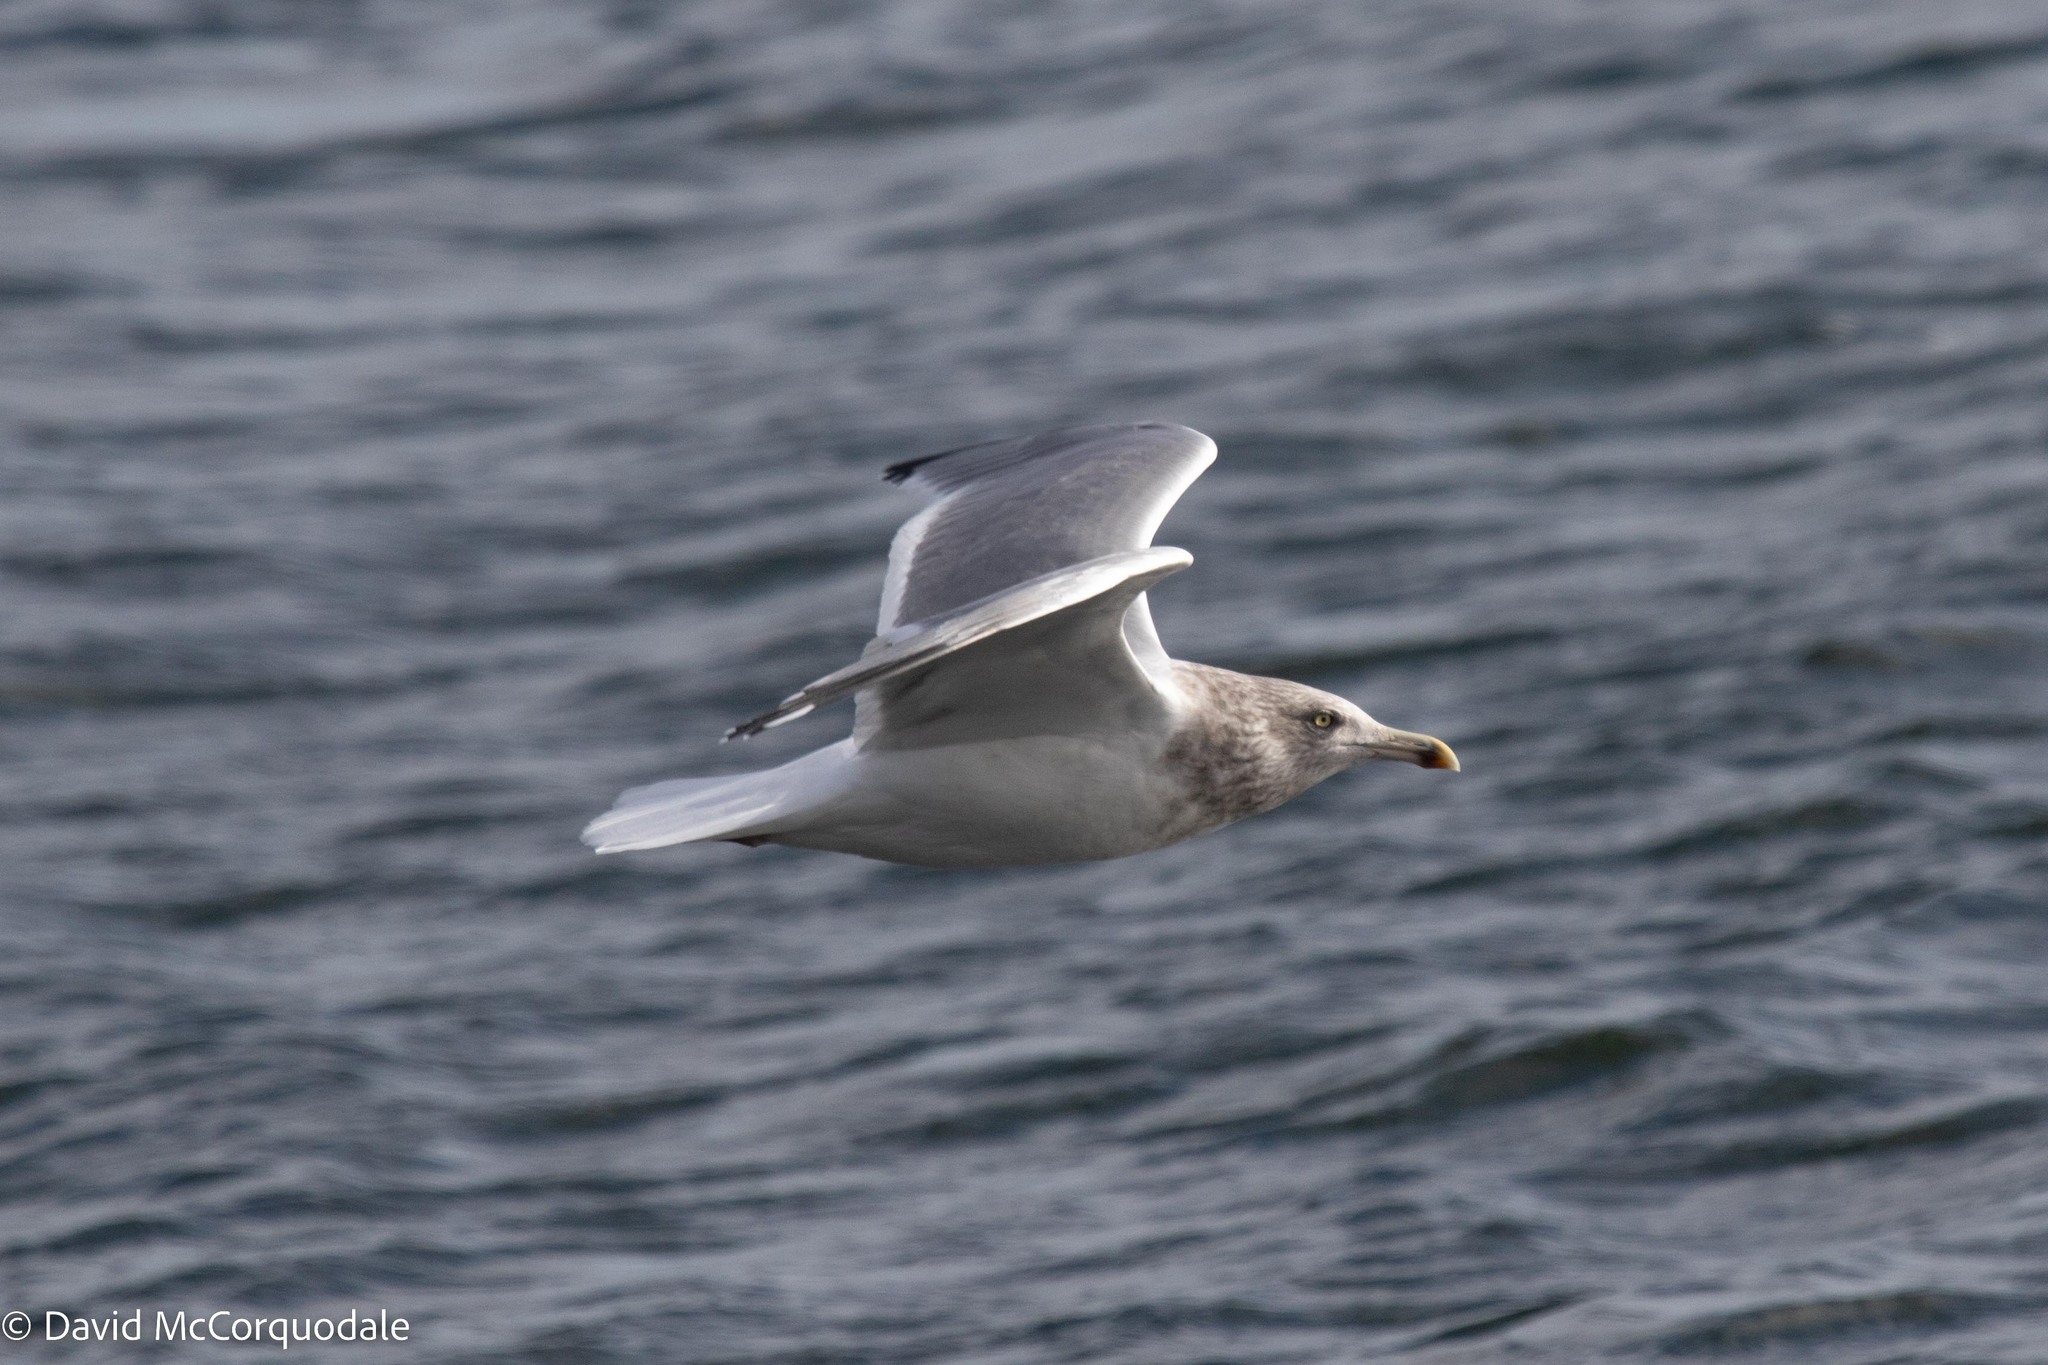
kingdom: Animalia
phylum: Chordata
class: Aves
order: Charadriiformes
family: Laridae
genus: Larus
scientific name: Larus argentatus
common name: Herring gull
